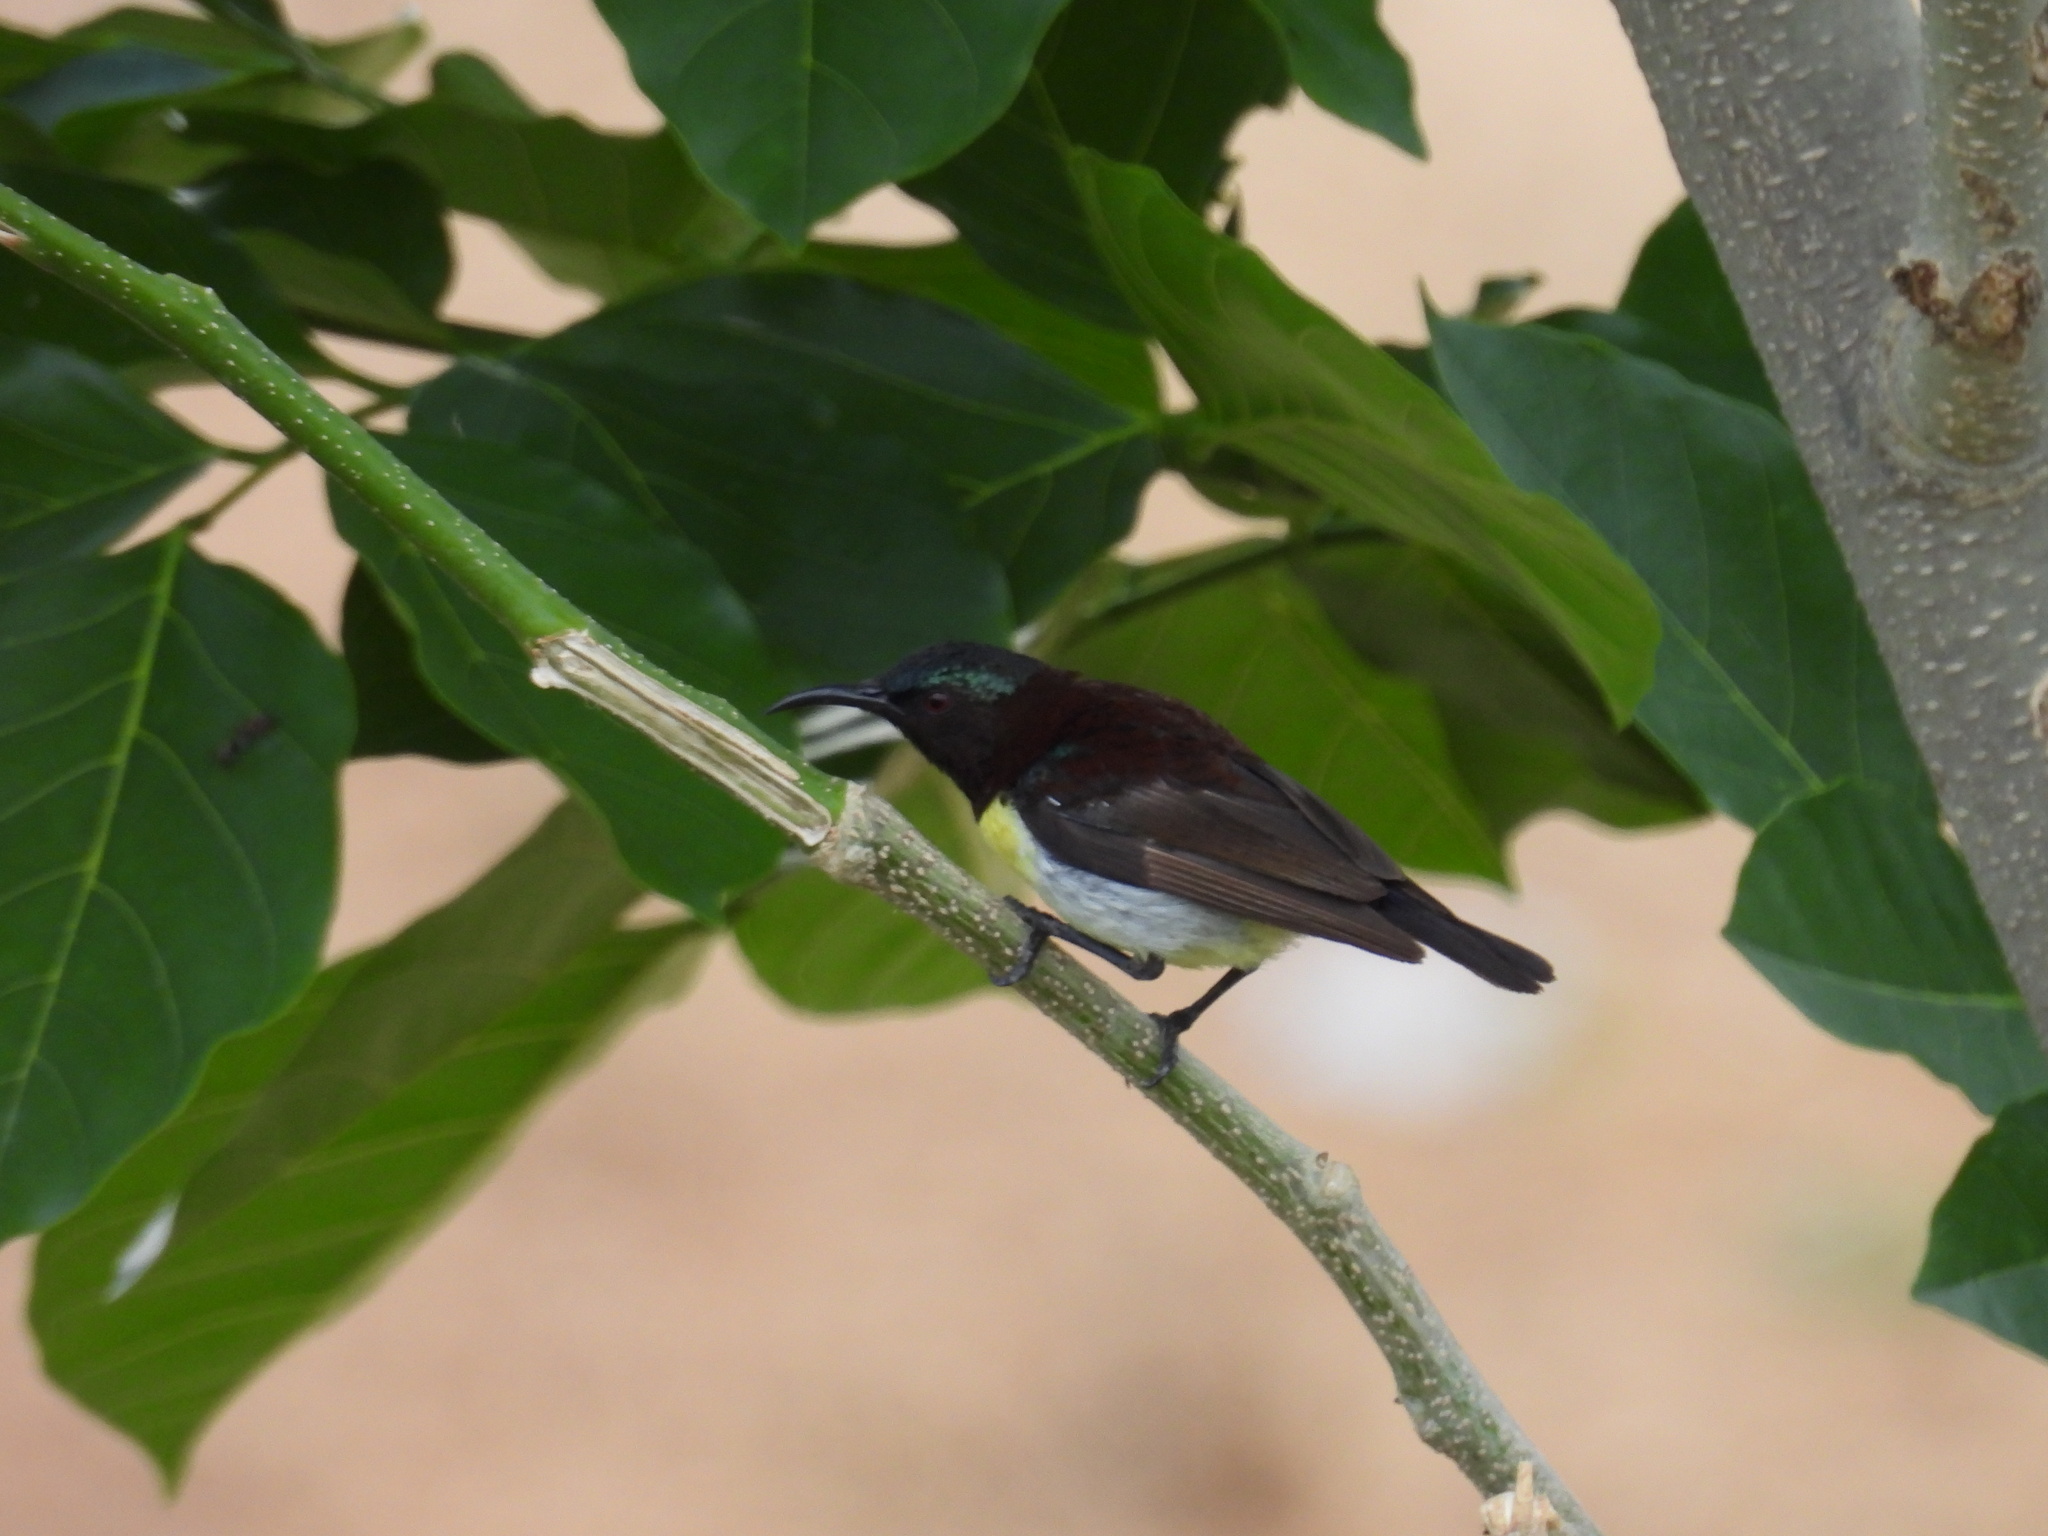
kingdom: Animalia
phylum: Chordata
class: Aves
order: Passeriformes
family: Nectariniidae
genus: Leptocoma
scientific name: Leptocoma zeylonica
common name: Purple-rumped sunbird
